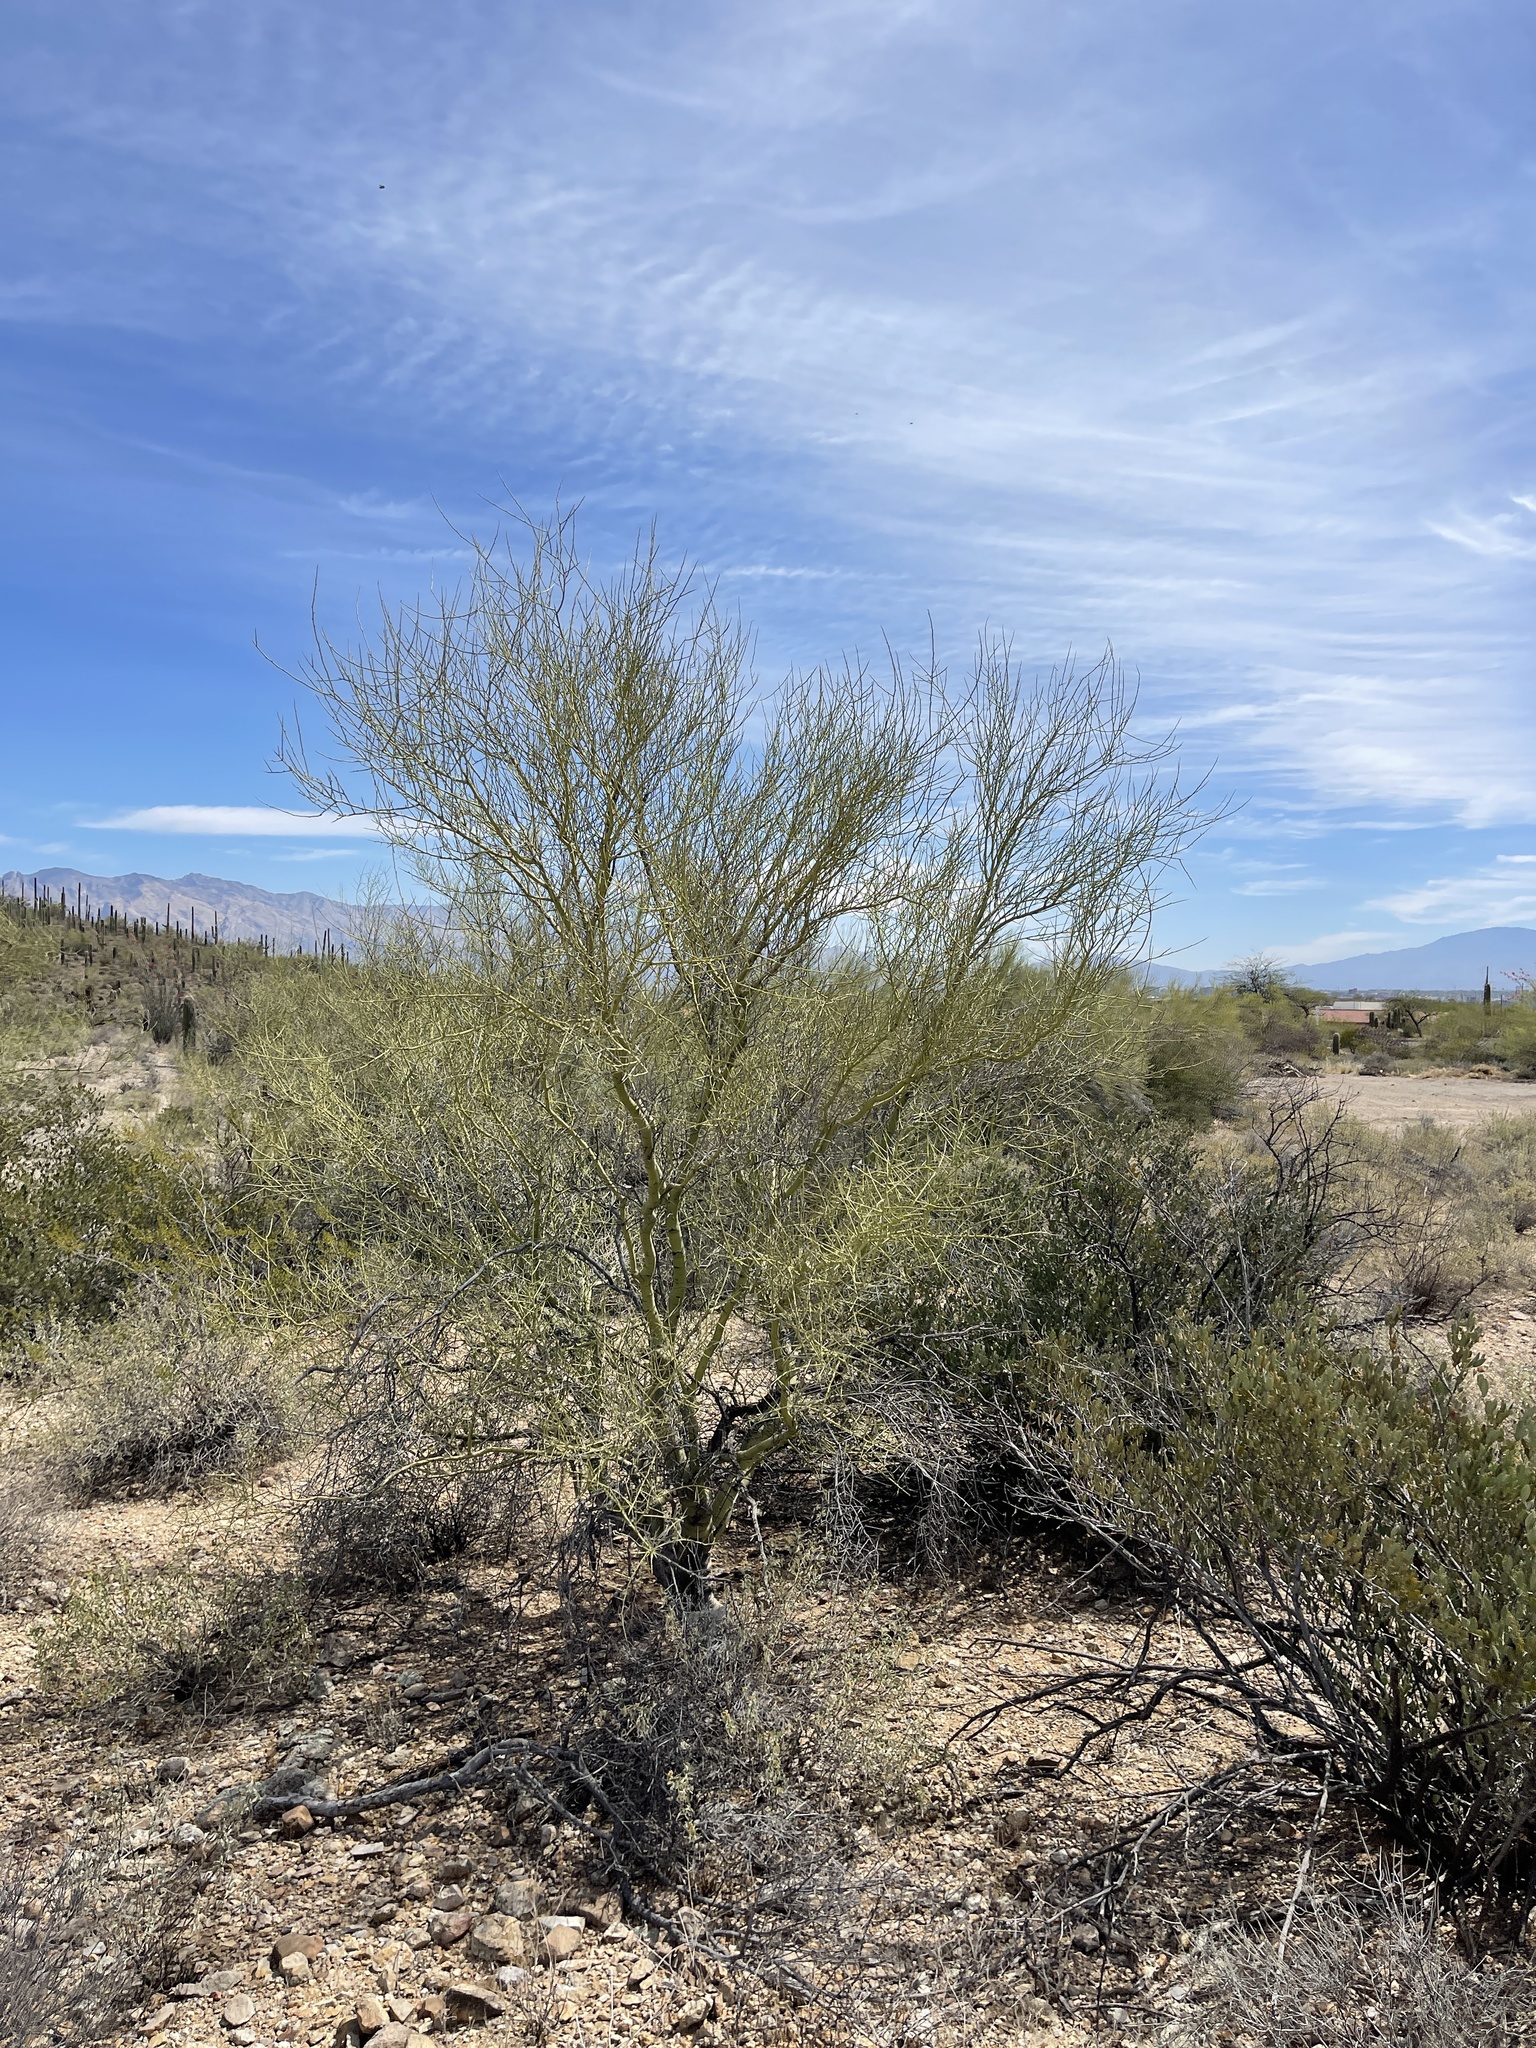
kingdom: Plantae
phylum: Tracheophyta
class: Magnoliopsida
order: Fabales
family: Fabaceae
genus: Parkinsonia
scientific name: Parkinsonia microphylla
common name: Yellow paloverde
